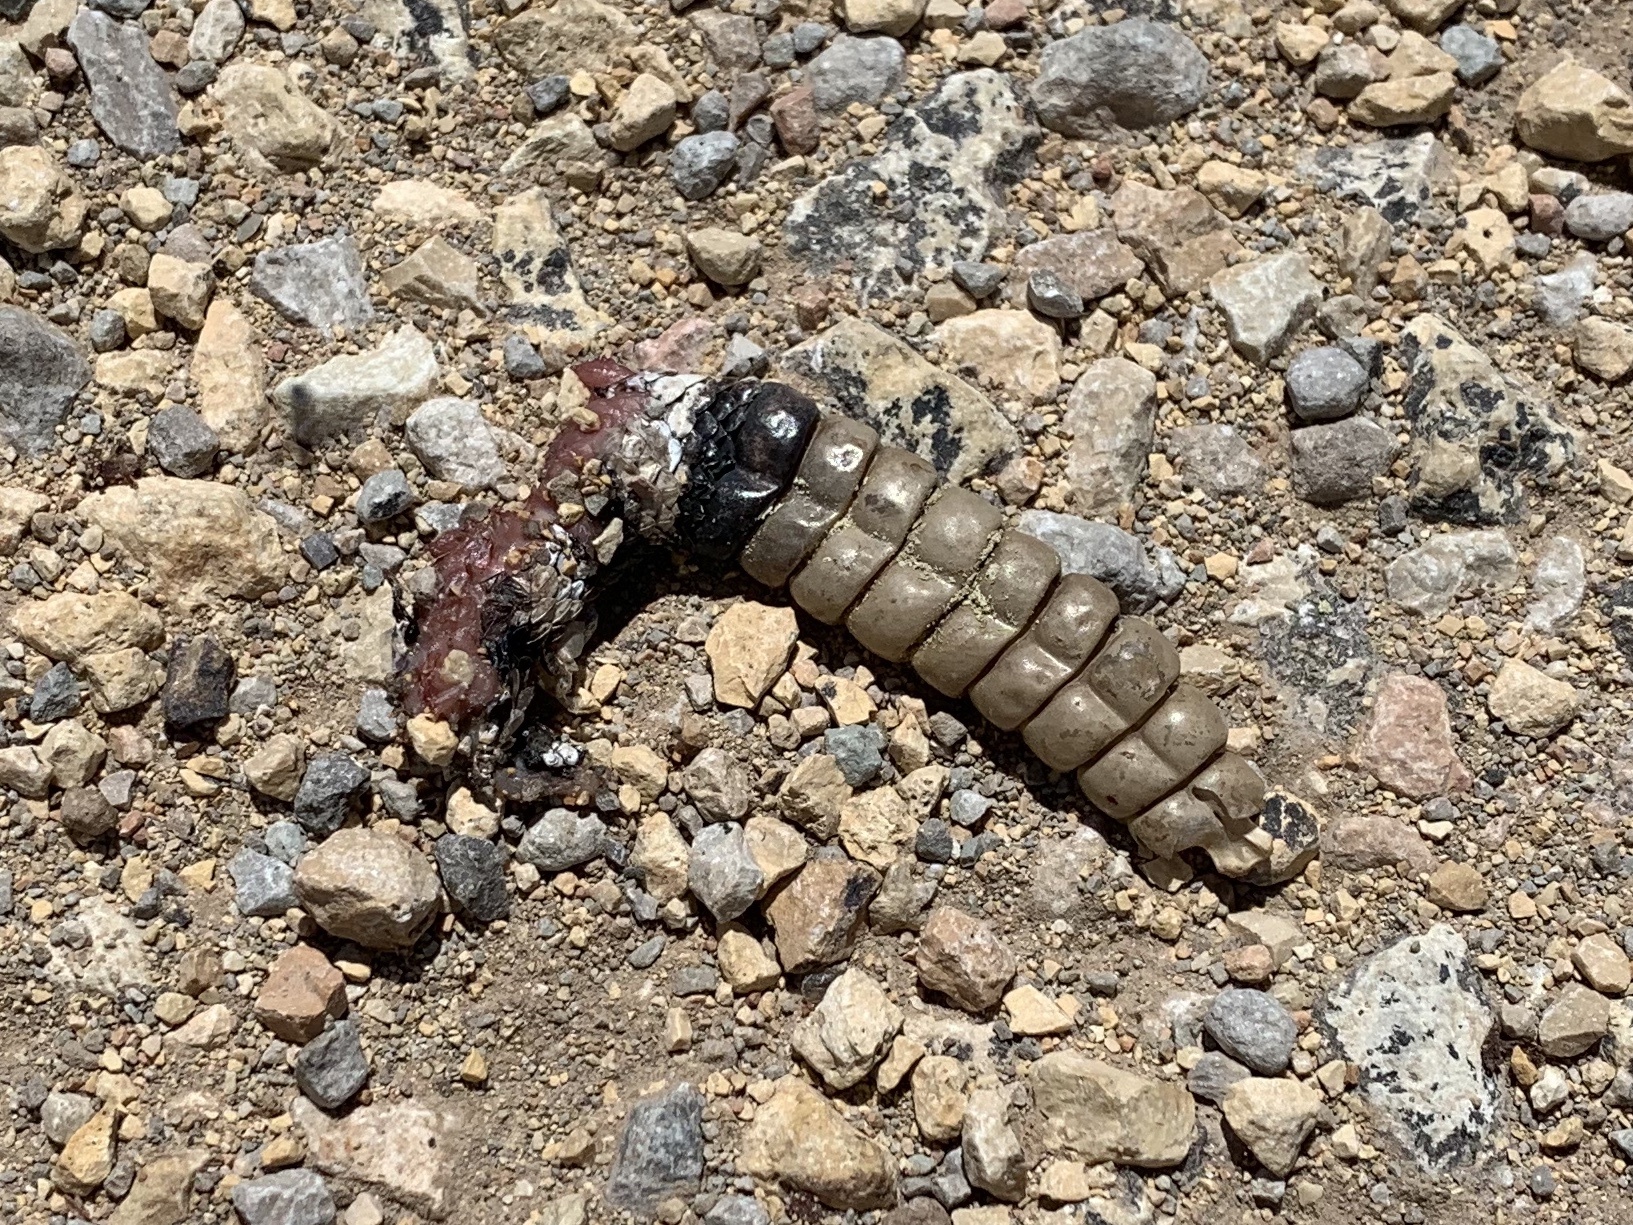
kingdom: Animalia
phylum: Chordata
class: Squamata
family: Viperidae
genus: Crotalus
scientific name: Crotalus atrox
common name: Western diamond-backed rattlesnake
